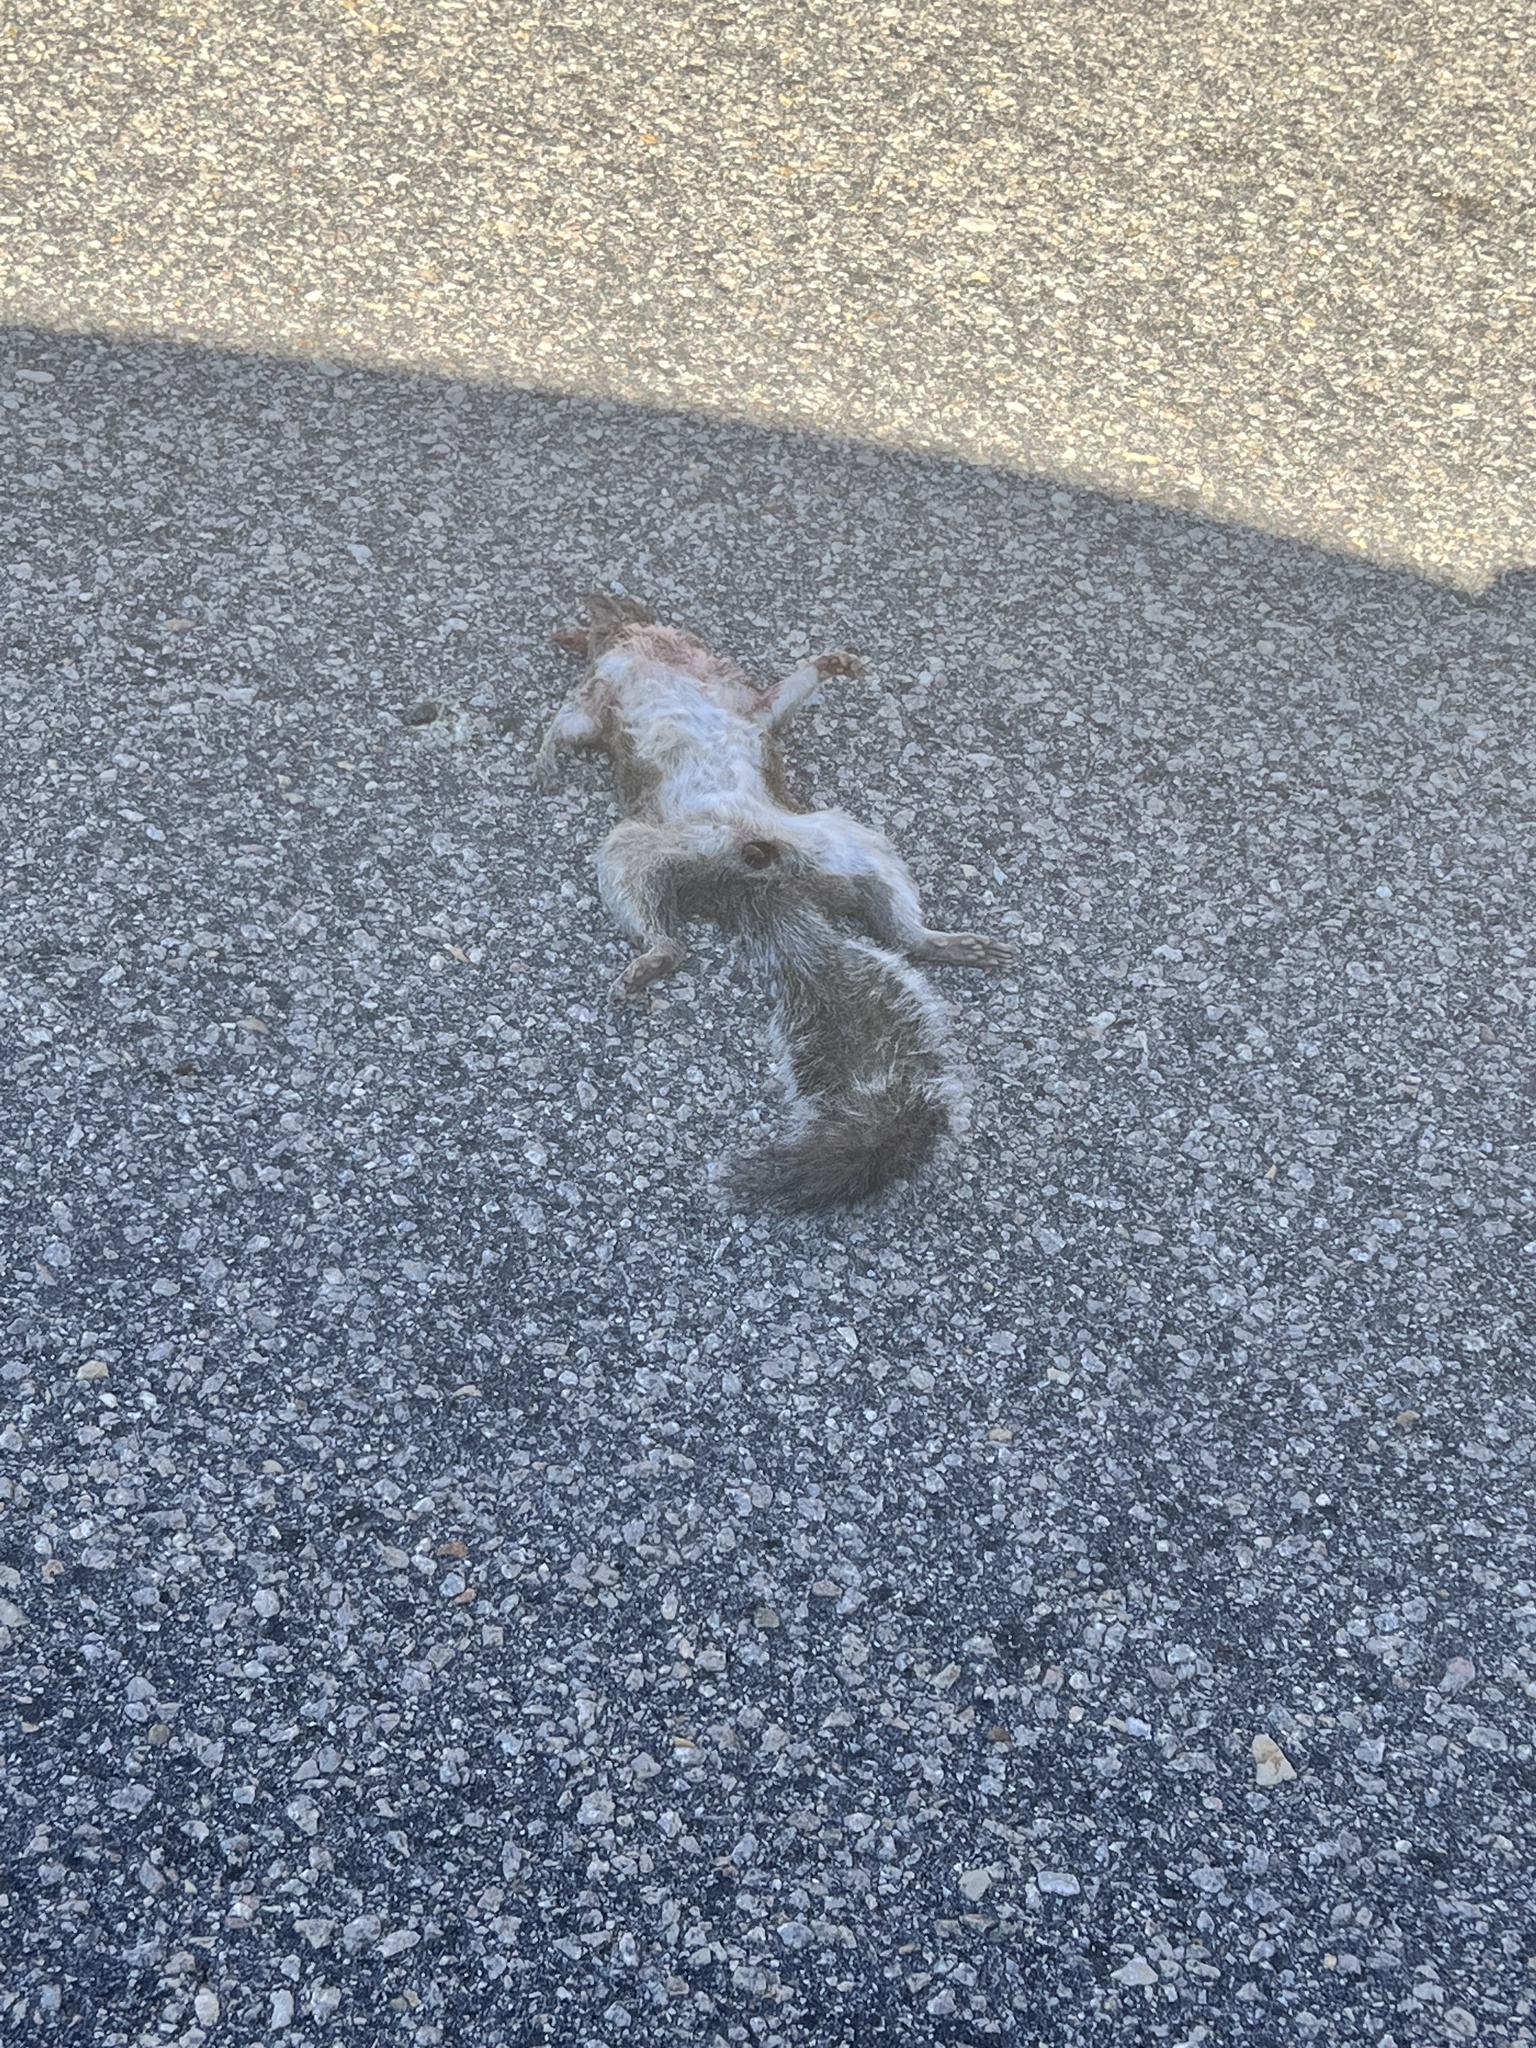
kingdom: Animalia
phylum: Chordata
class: Mammalia
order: Rodentia
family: Sciuridae
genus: Sciurus
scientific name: Sciurus carolinensis
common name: Eastern gray squirrel
